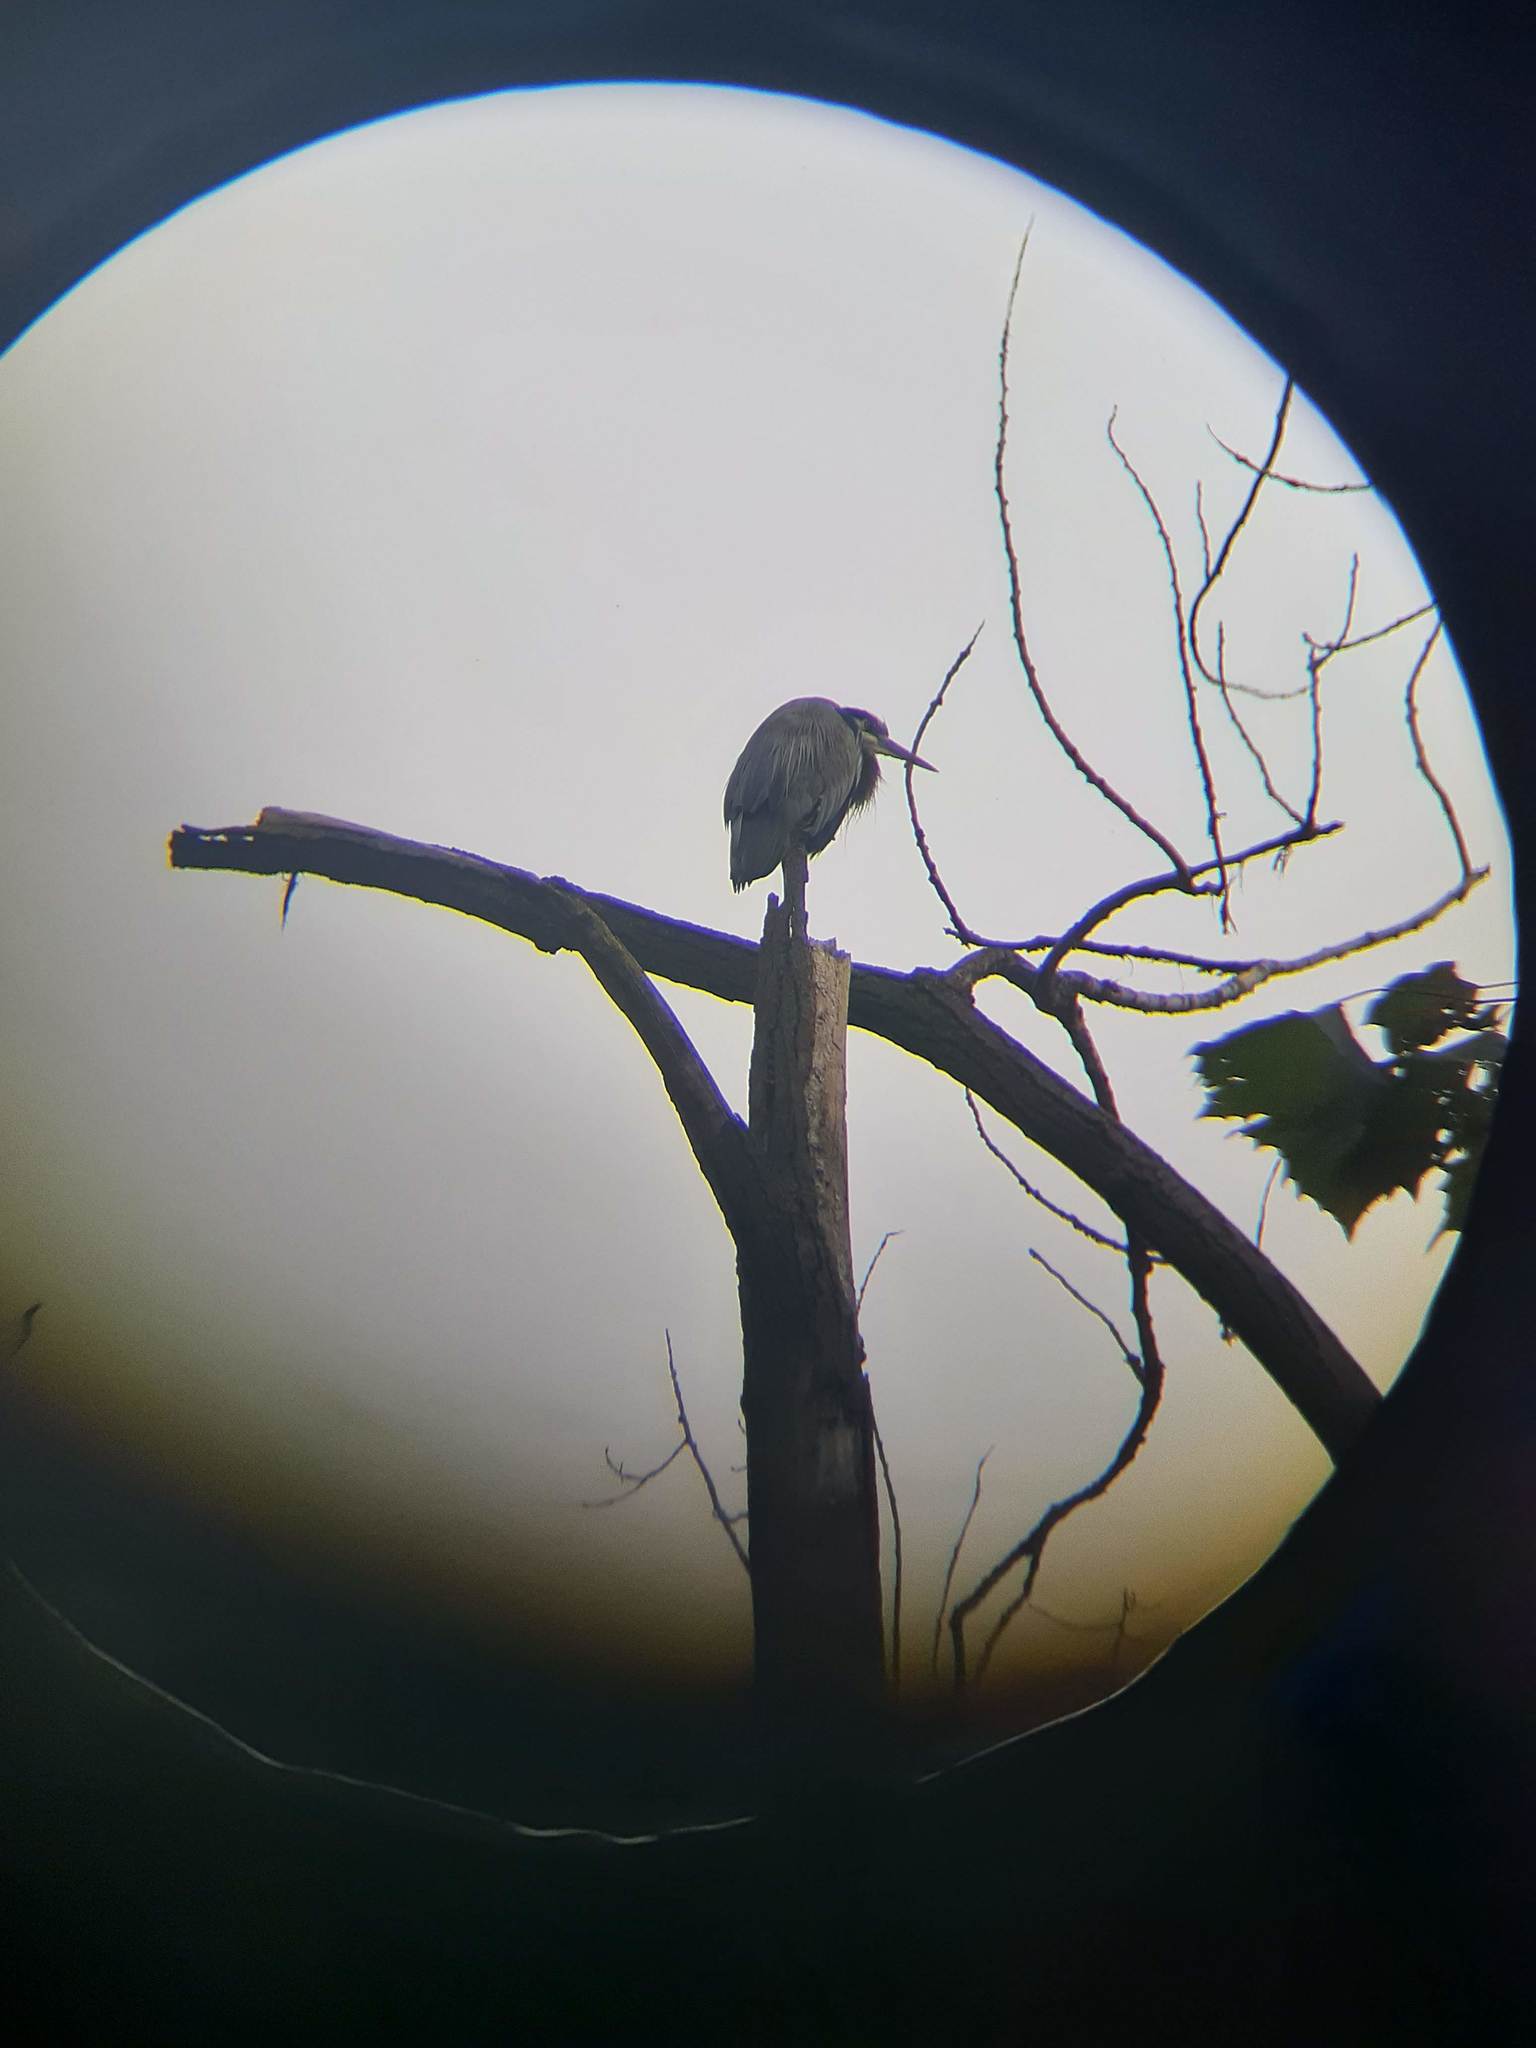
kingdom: Animalia
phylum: Chordata
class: Aves
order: Pelecaniformes
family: Ardeidae
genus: Ardea
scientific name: Ardea herodias
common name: Great blue heron
